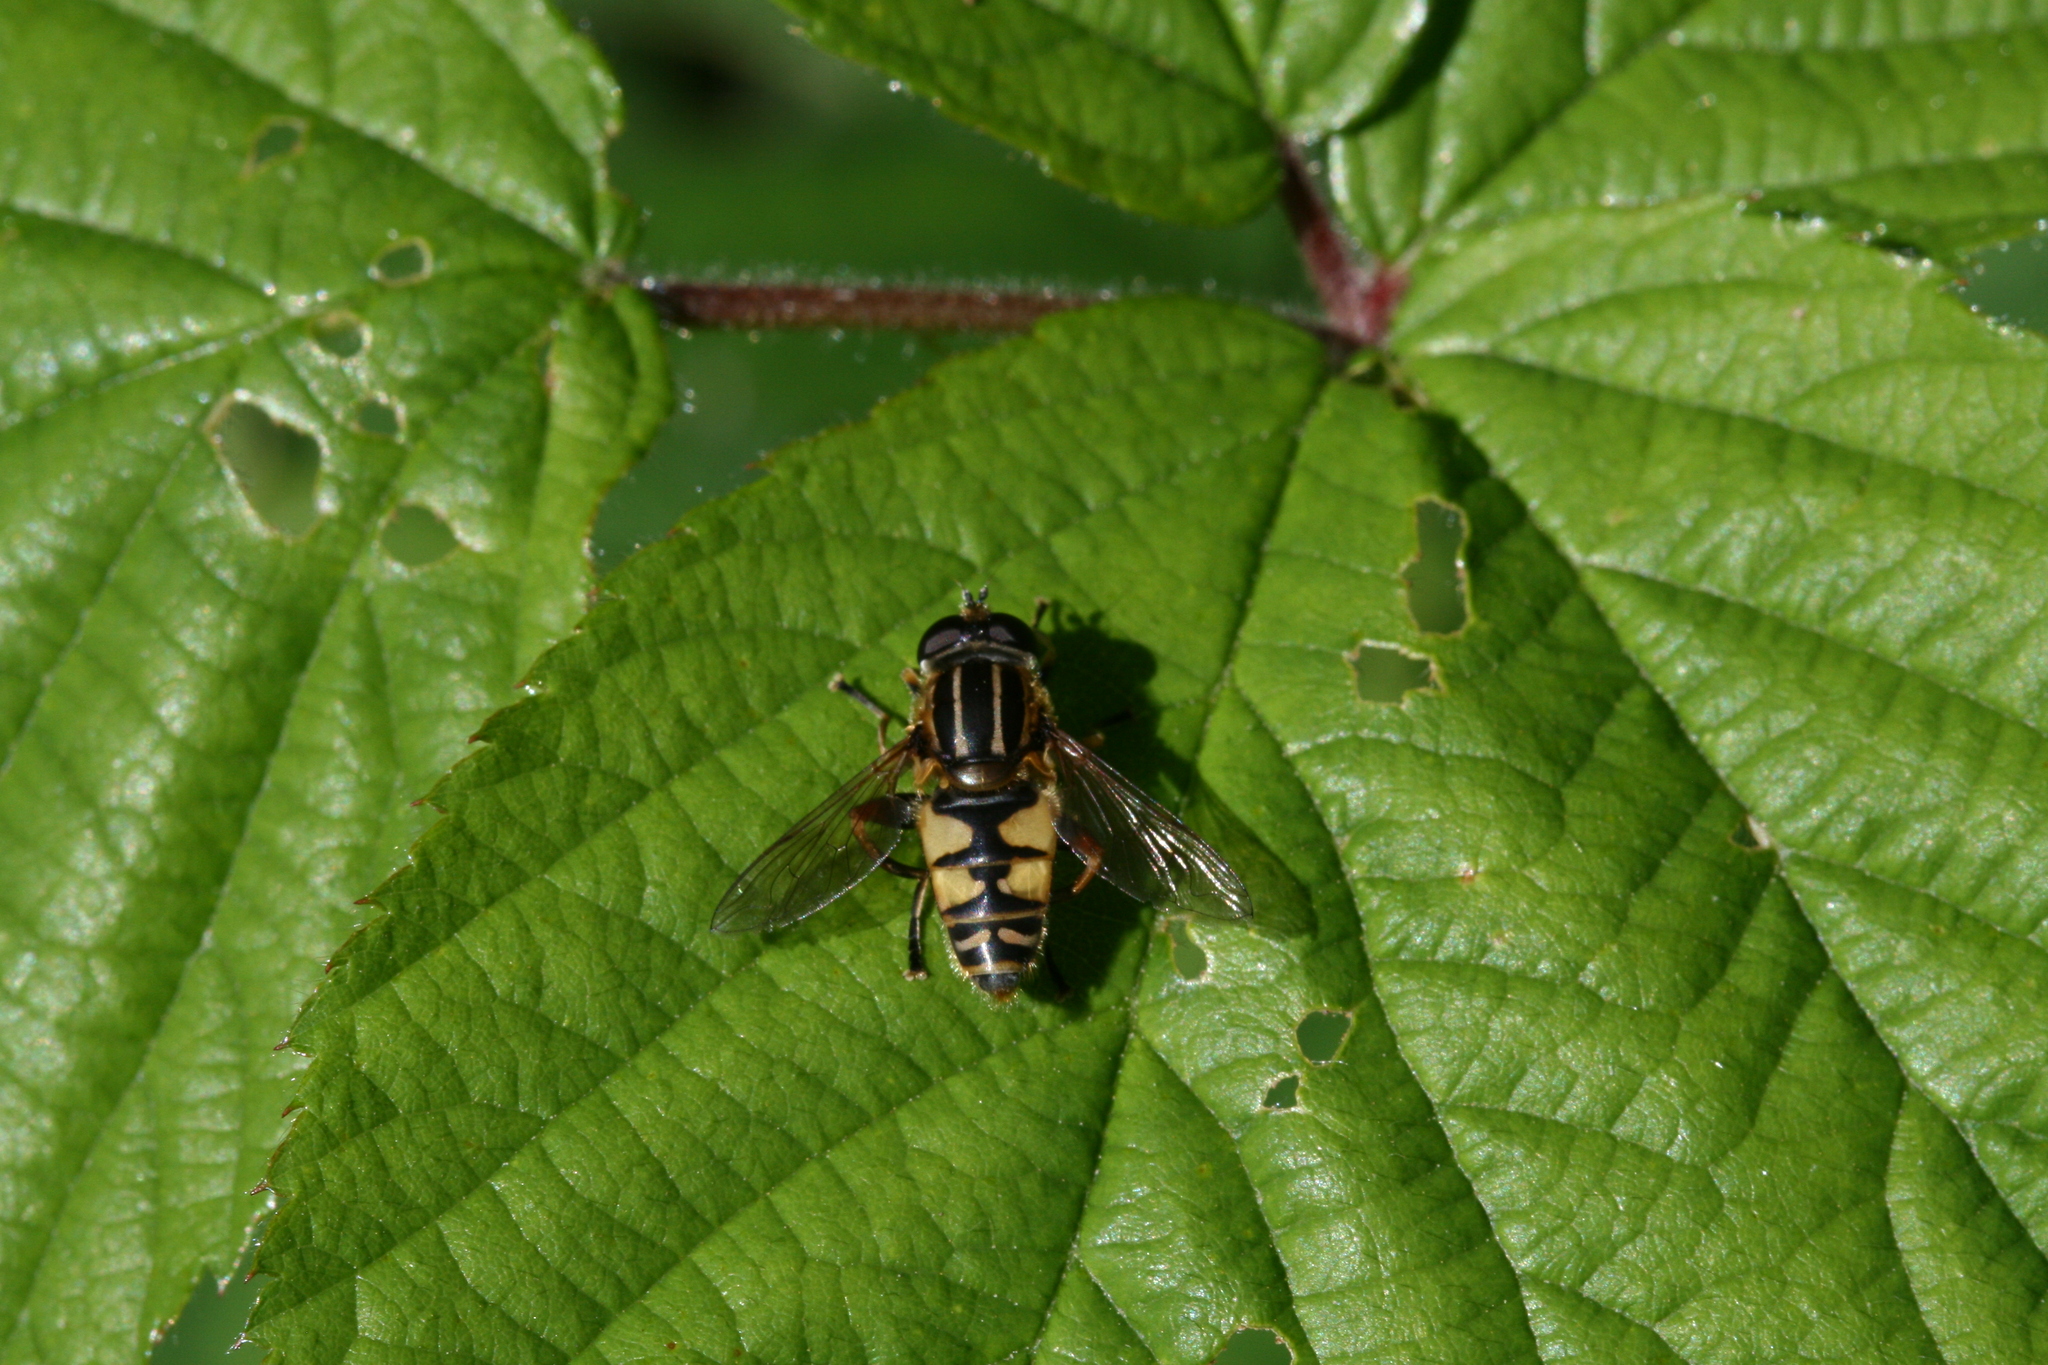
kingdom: Animalia
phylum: Arthropoda
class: Insecta
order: Diptera
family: Syrphidae
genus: Helophilus
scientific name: Helophilus pendulus
